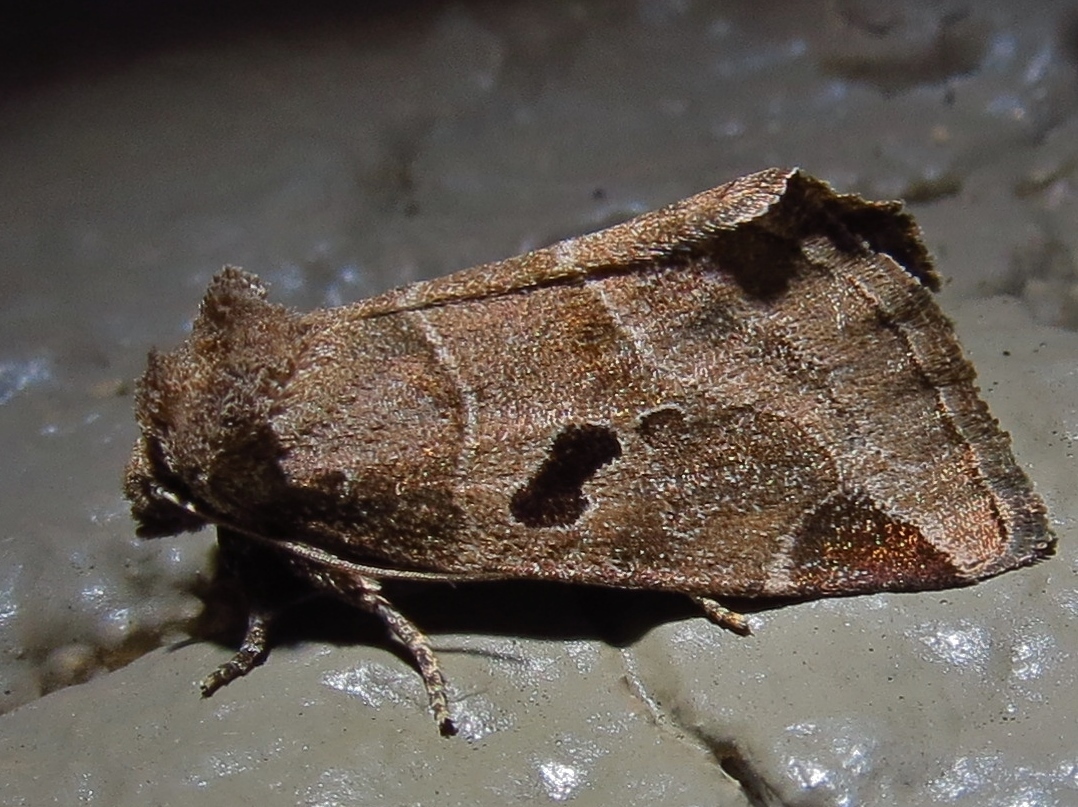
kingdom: Animalia
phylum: Arthropoda
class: Insecta
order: Lepidoptera
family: Noctuidae
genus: Plagiomimicus
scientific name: Plagiomimicus pityochromus
